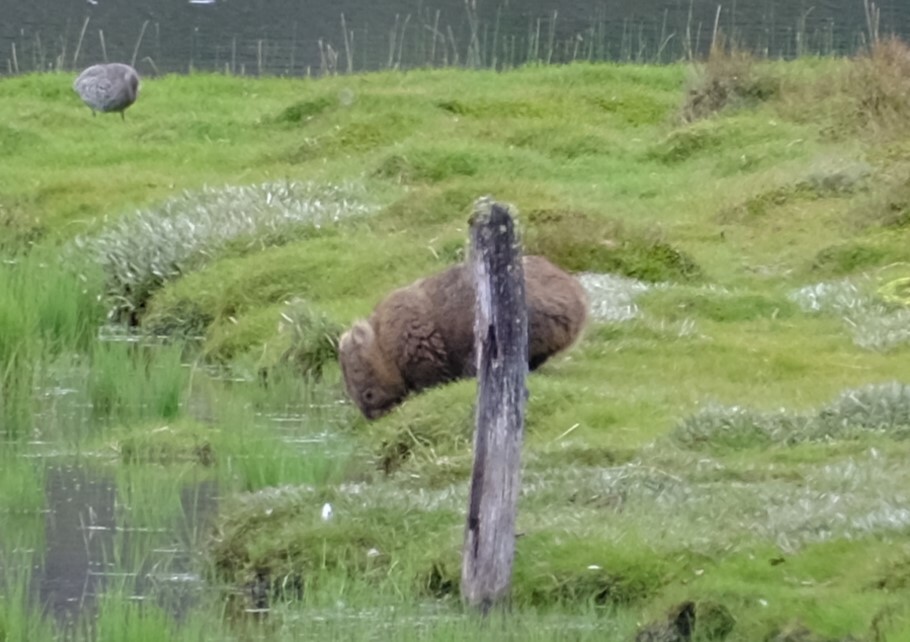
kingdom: Animalia
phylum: Chordata
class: Mammalia
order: Diprotodontia
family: Vombatidae
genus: Vombatus
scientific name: Vombatus ursinus
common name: Common wombat
